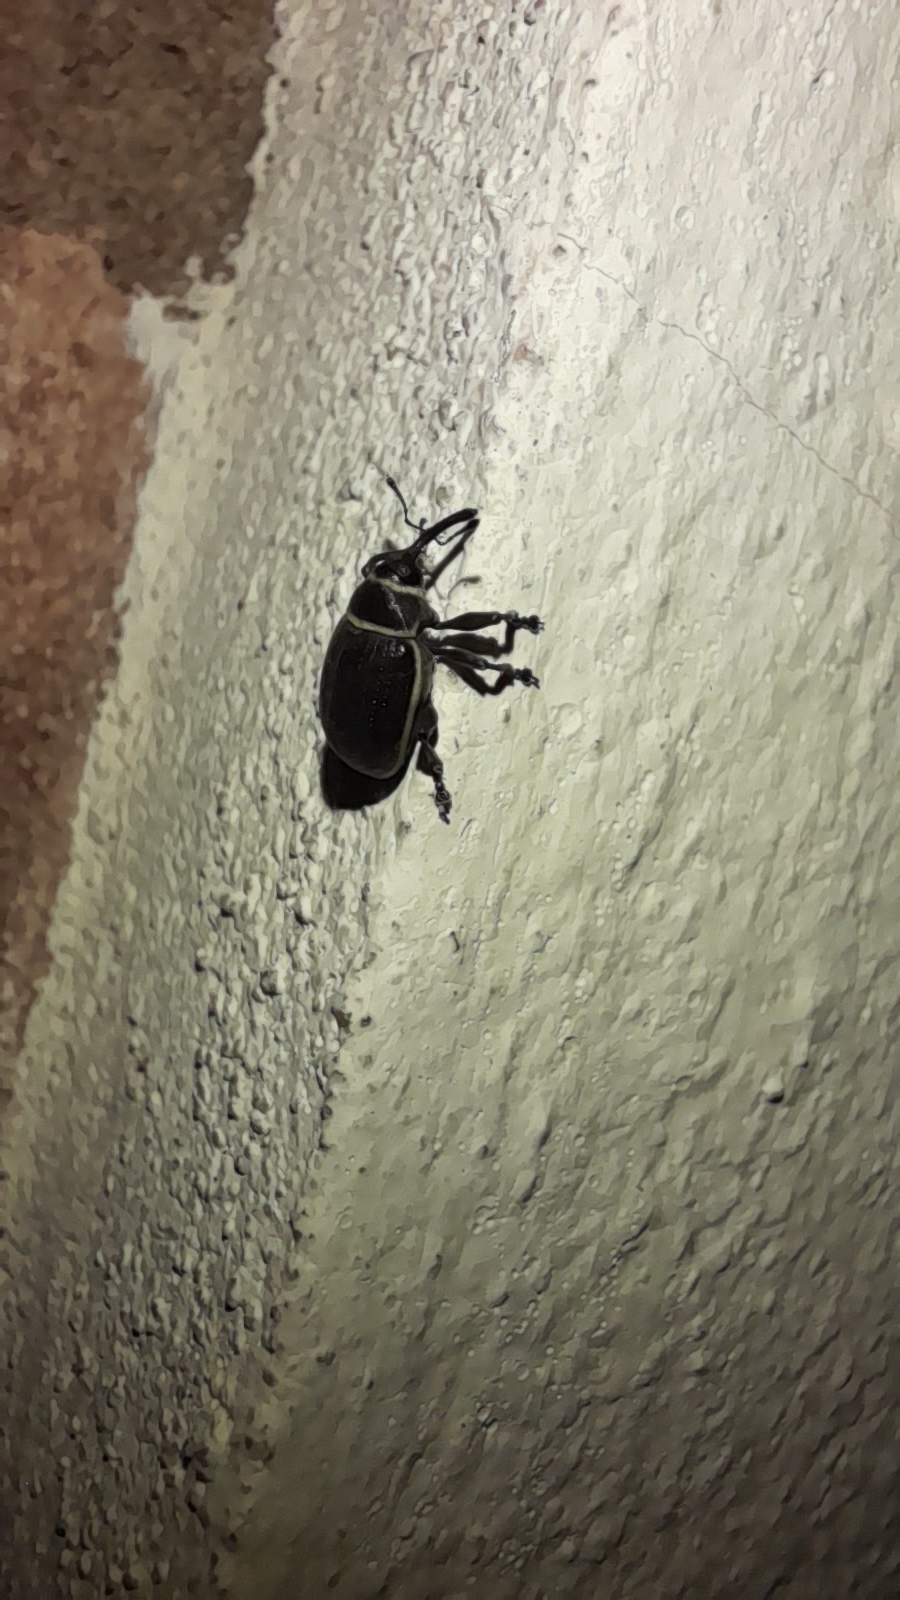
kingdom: Animalia
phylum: Arthropoda
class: Insecta
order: Coleoptera
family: Curculionidae
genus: Rhyssomatus
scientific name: Rhyssomatus marginatus
